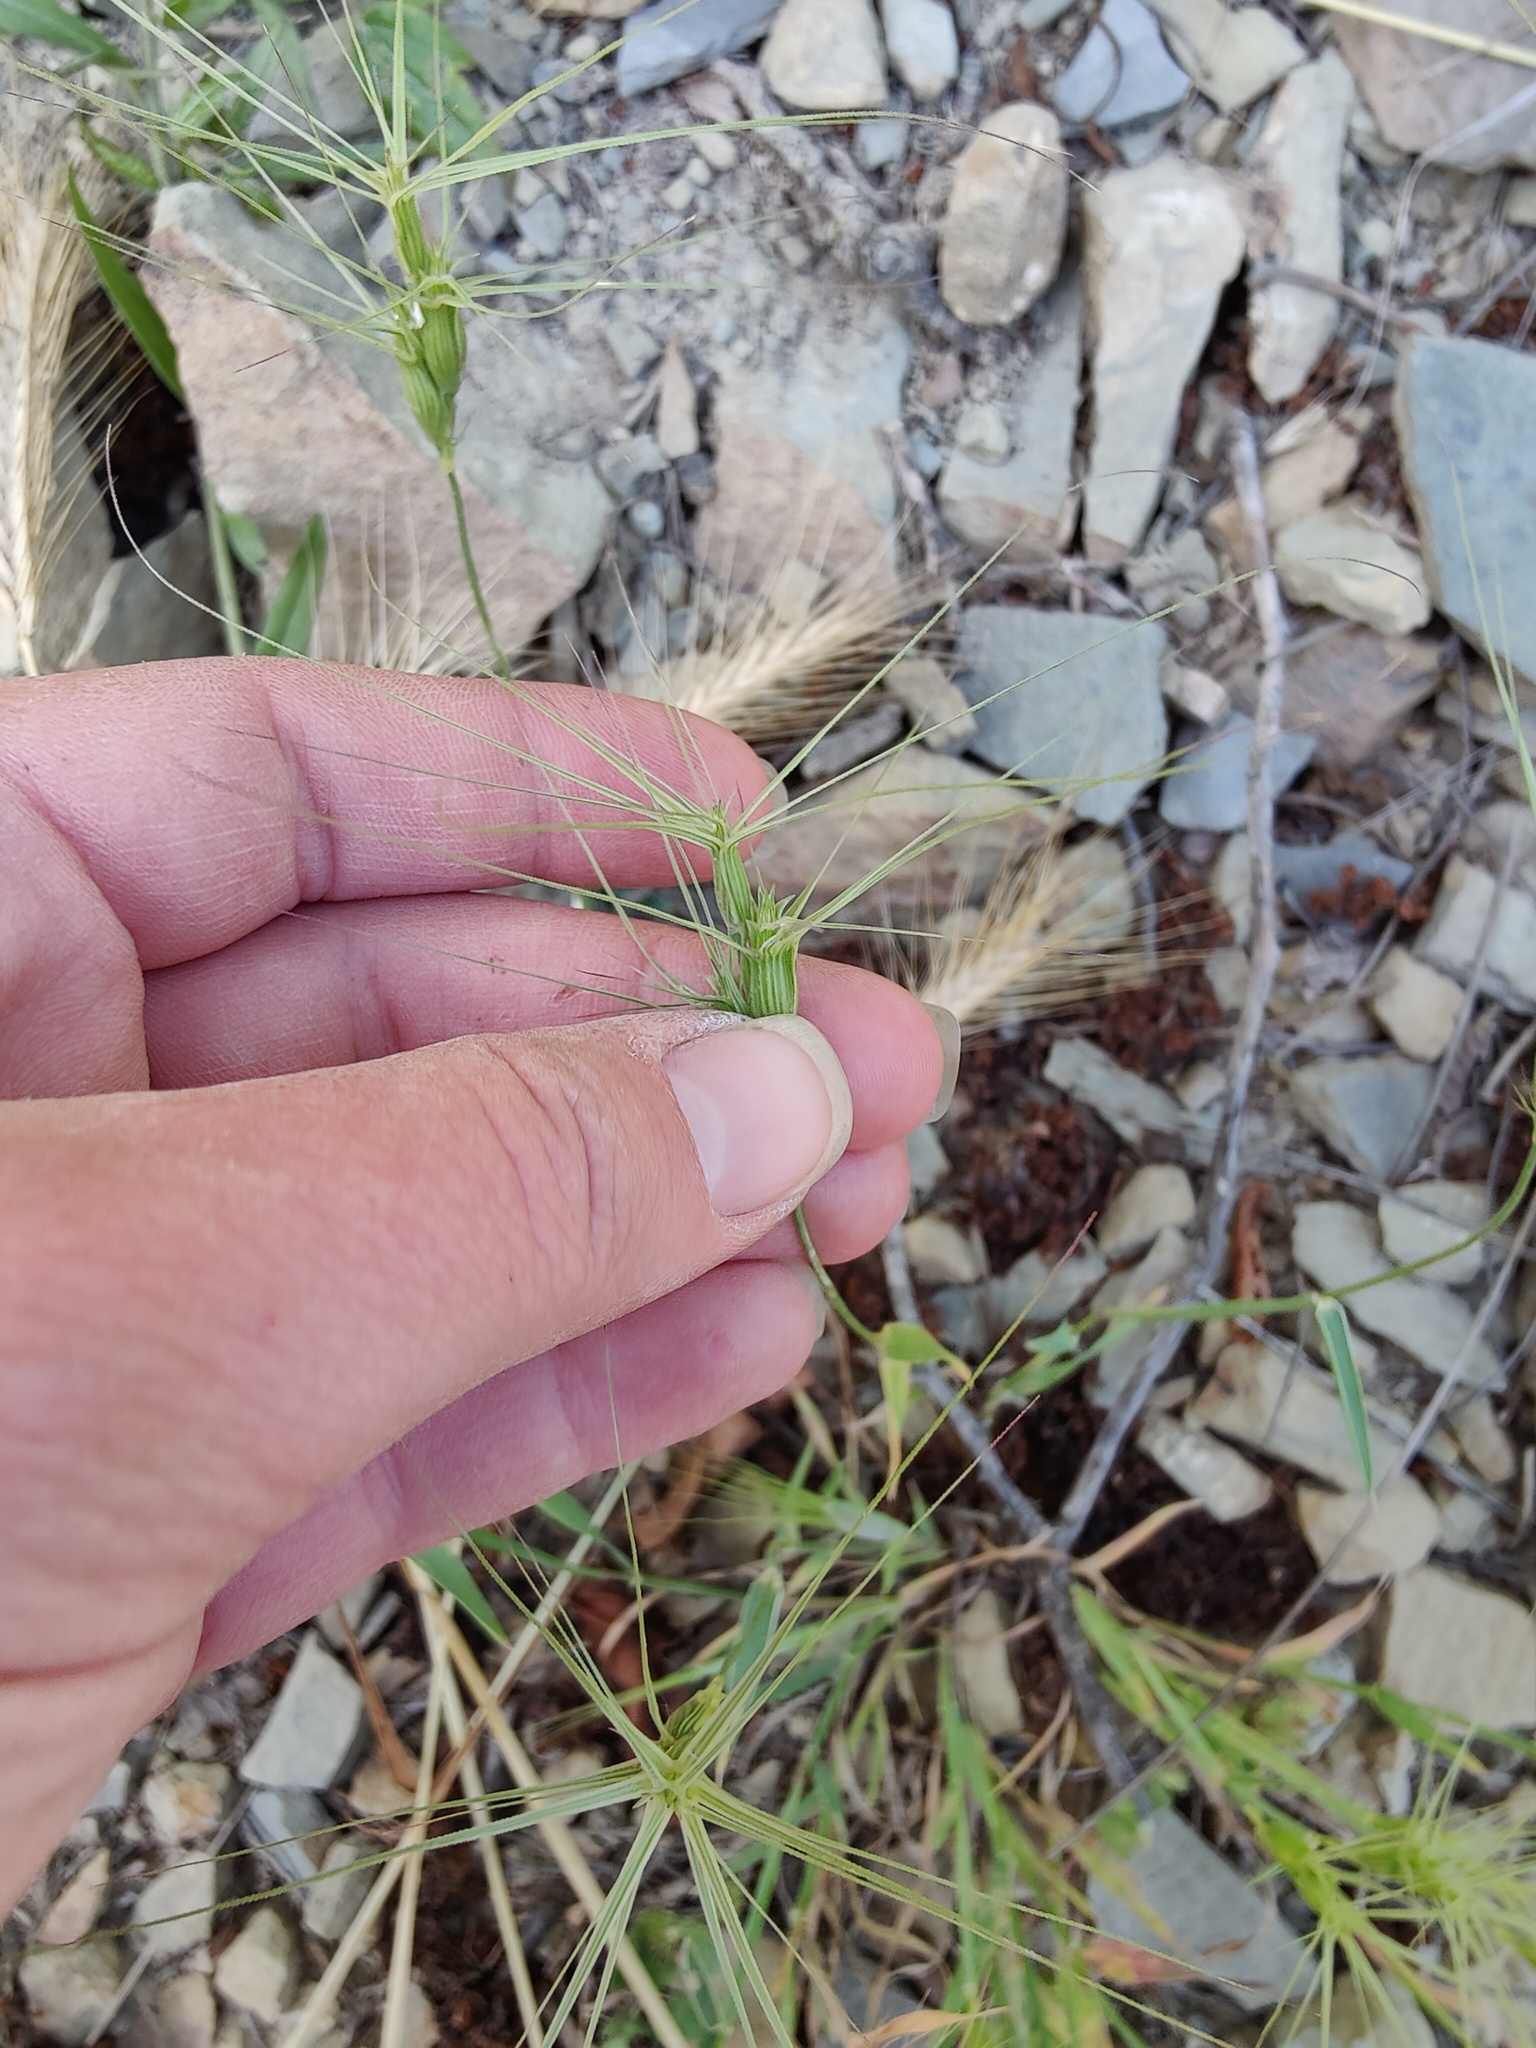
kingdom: Plantae
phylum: Tracheophyta
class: Liliopsida
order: Poales
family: Poaceae
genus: Aegilops
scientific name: Aegilops biuncialis
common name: Mediterranean aegilops
